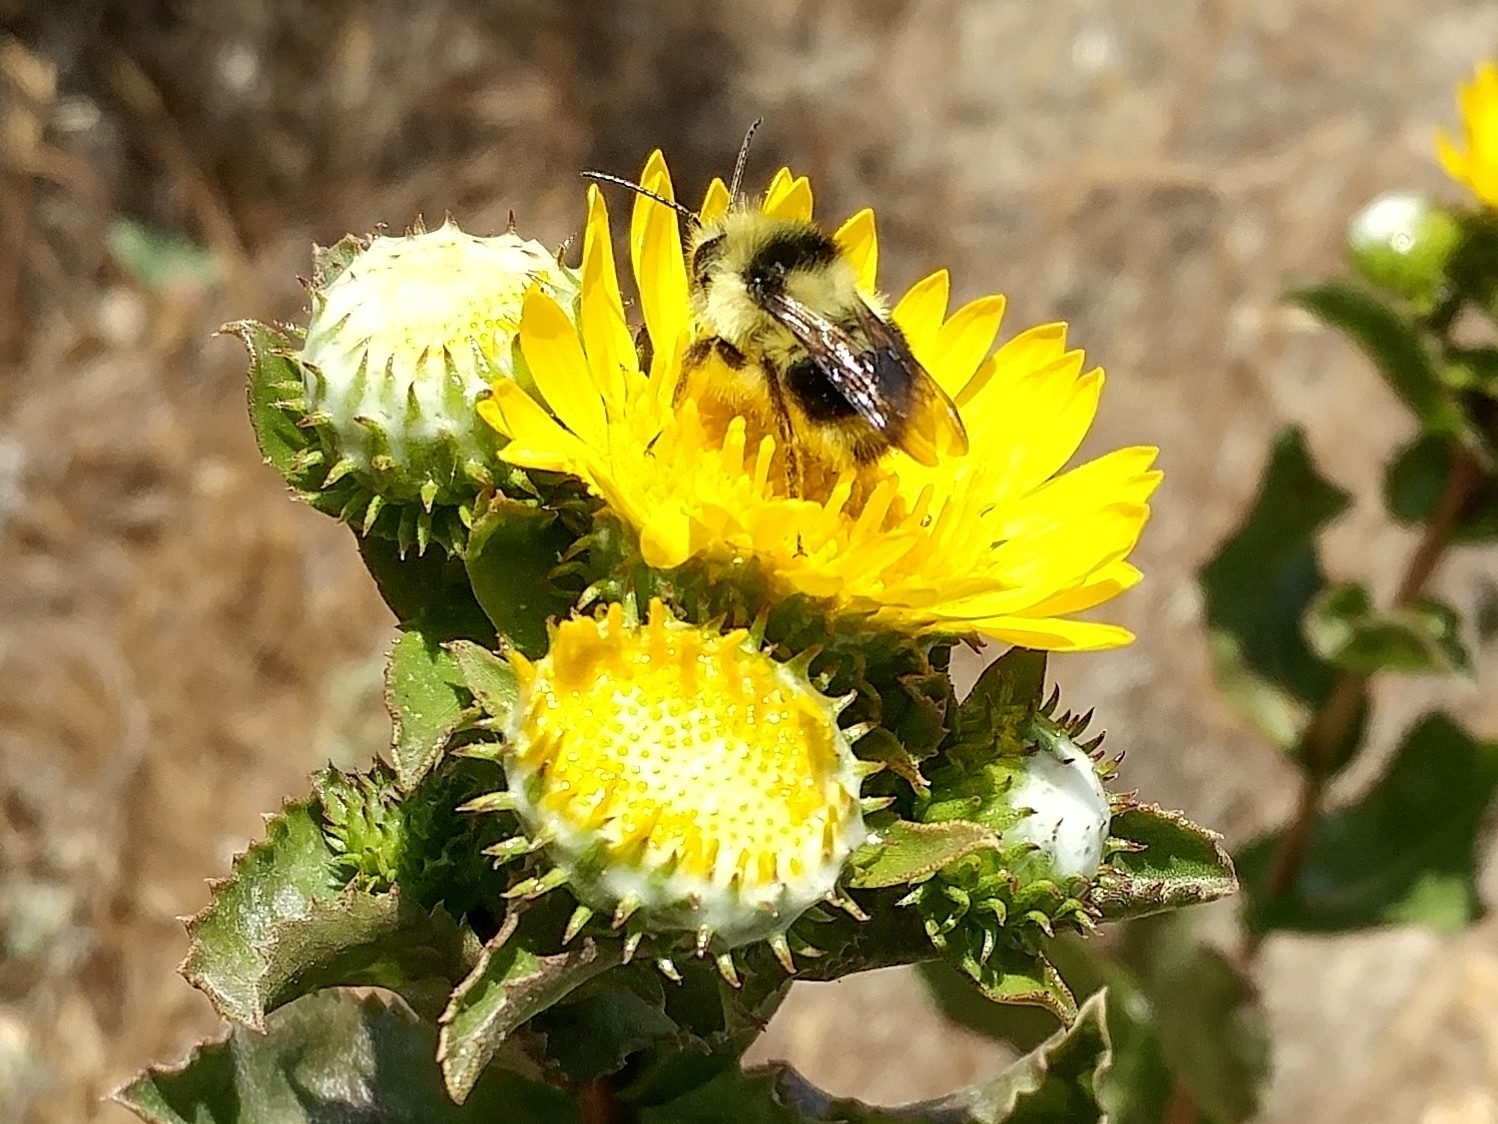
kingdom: Animalia
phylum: Arthropoda
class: Insecta
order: Hymenoptera
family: Apidae
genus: Bombus
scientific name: Bombus melanopygus
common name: Black tail bumble bee
